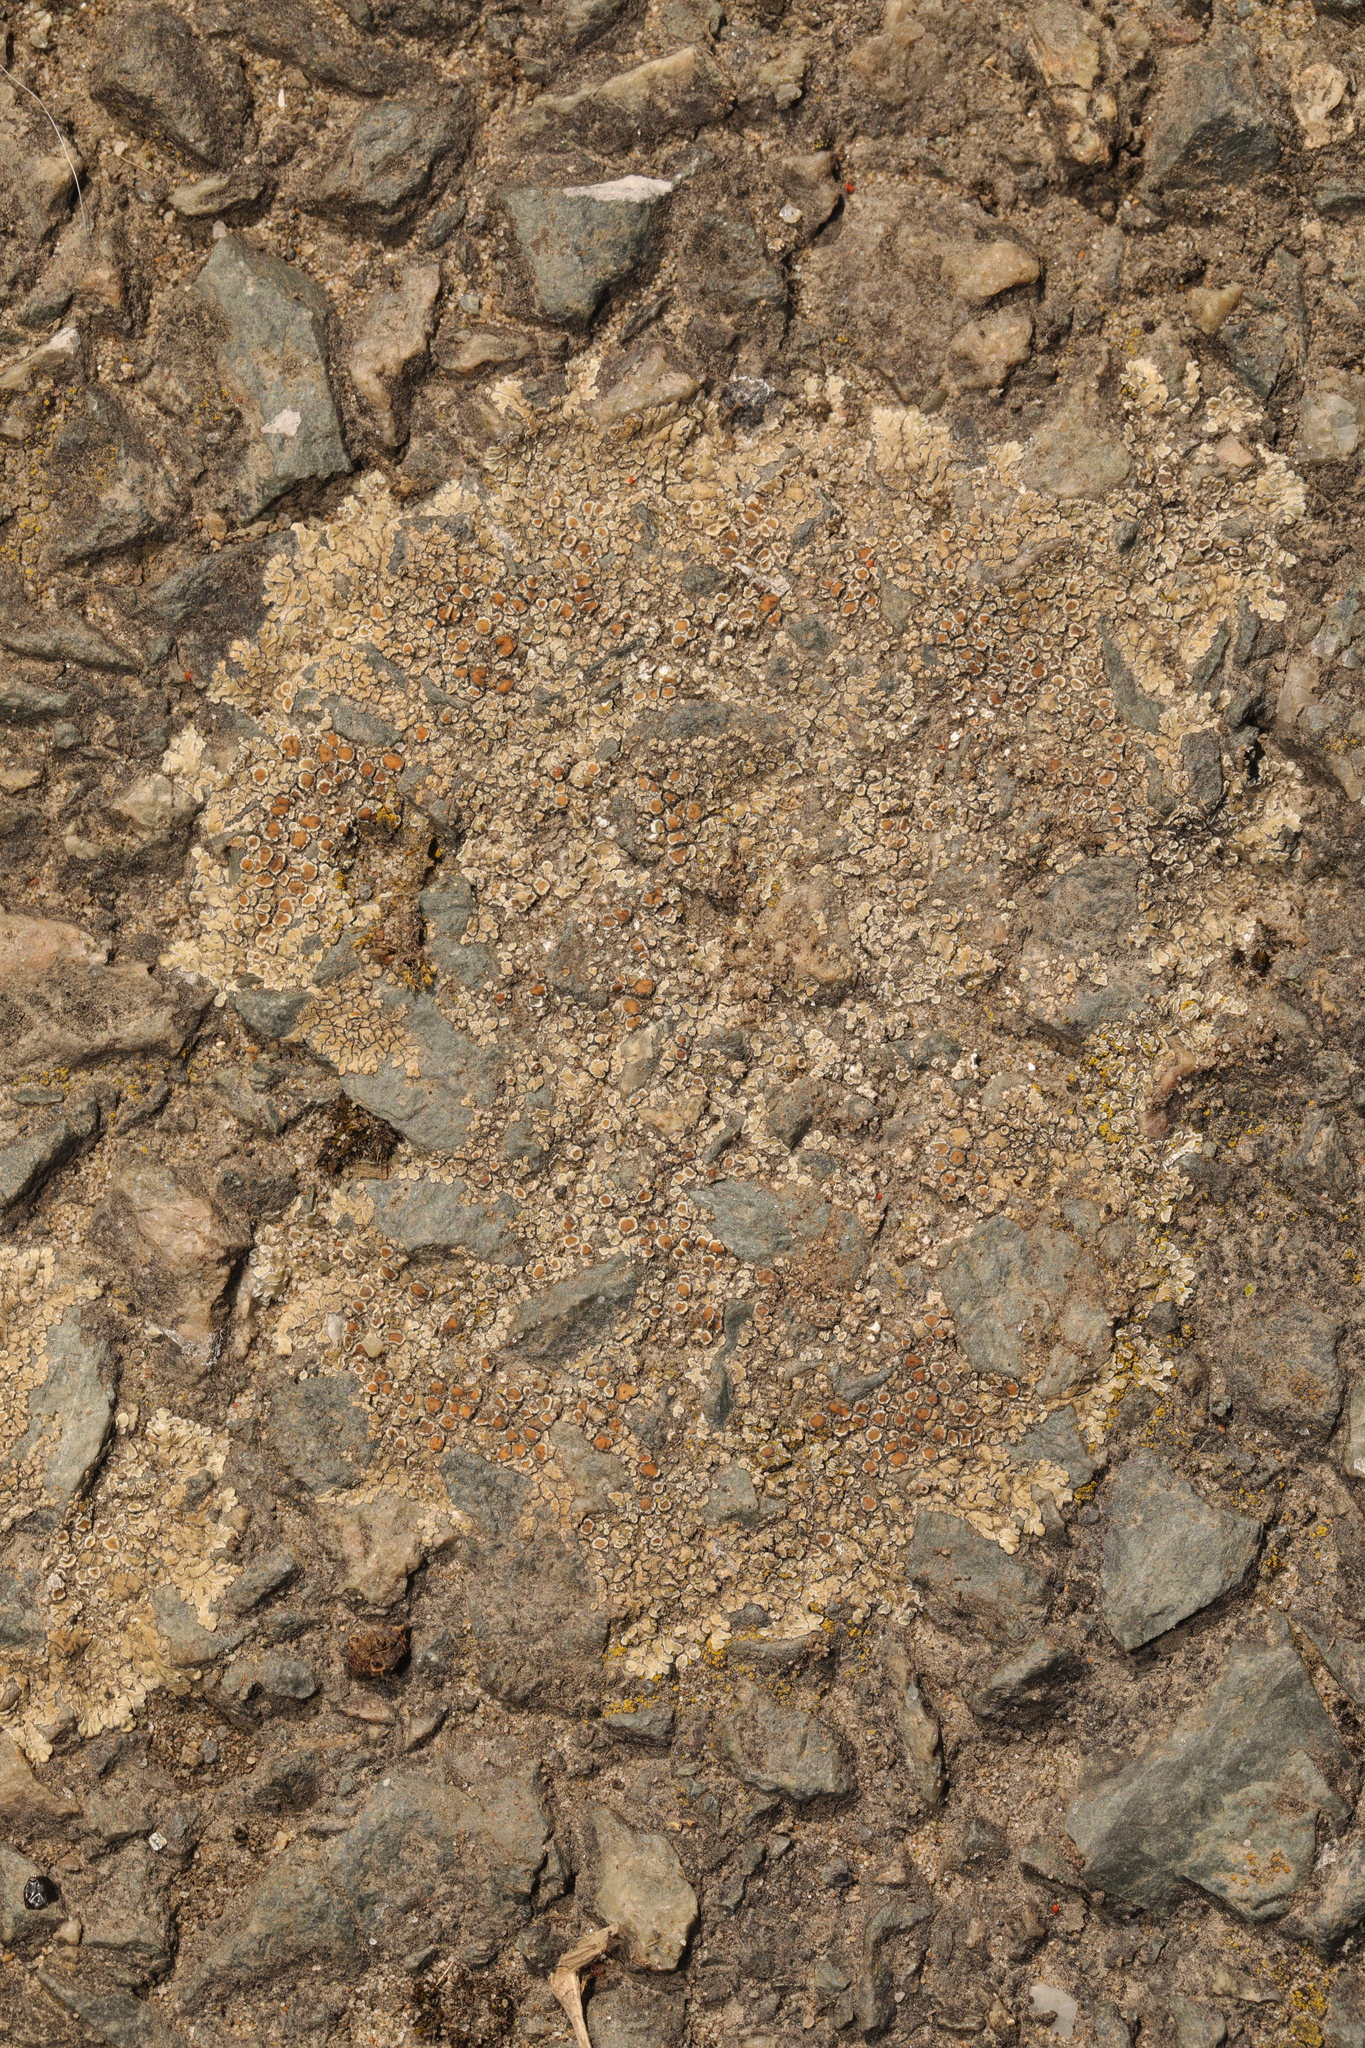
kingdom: Fungi
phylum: Ascomycota
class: Lecanoromycetes
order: Lecanorales
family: Lecanoraceae
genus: Protoparmeliopsis
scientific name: Protoparmeliopsis muralis
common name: Stonewall rim lichen
